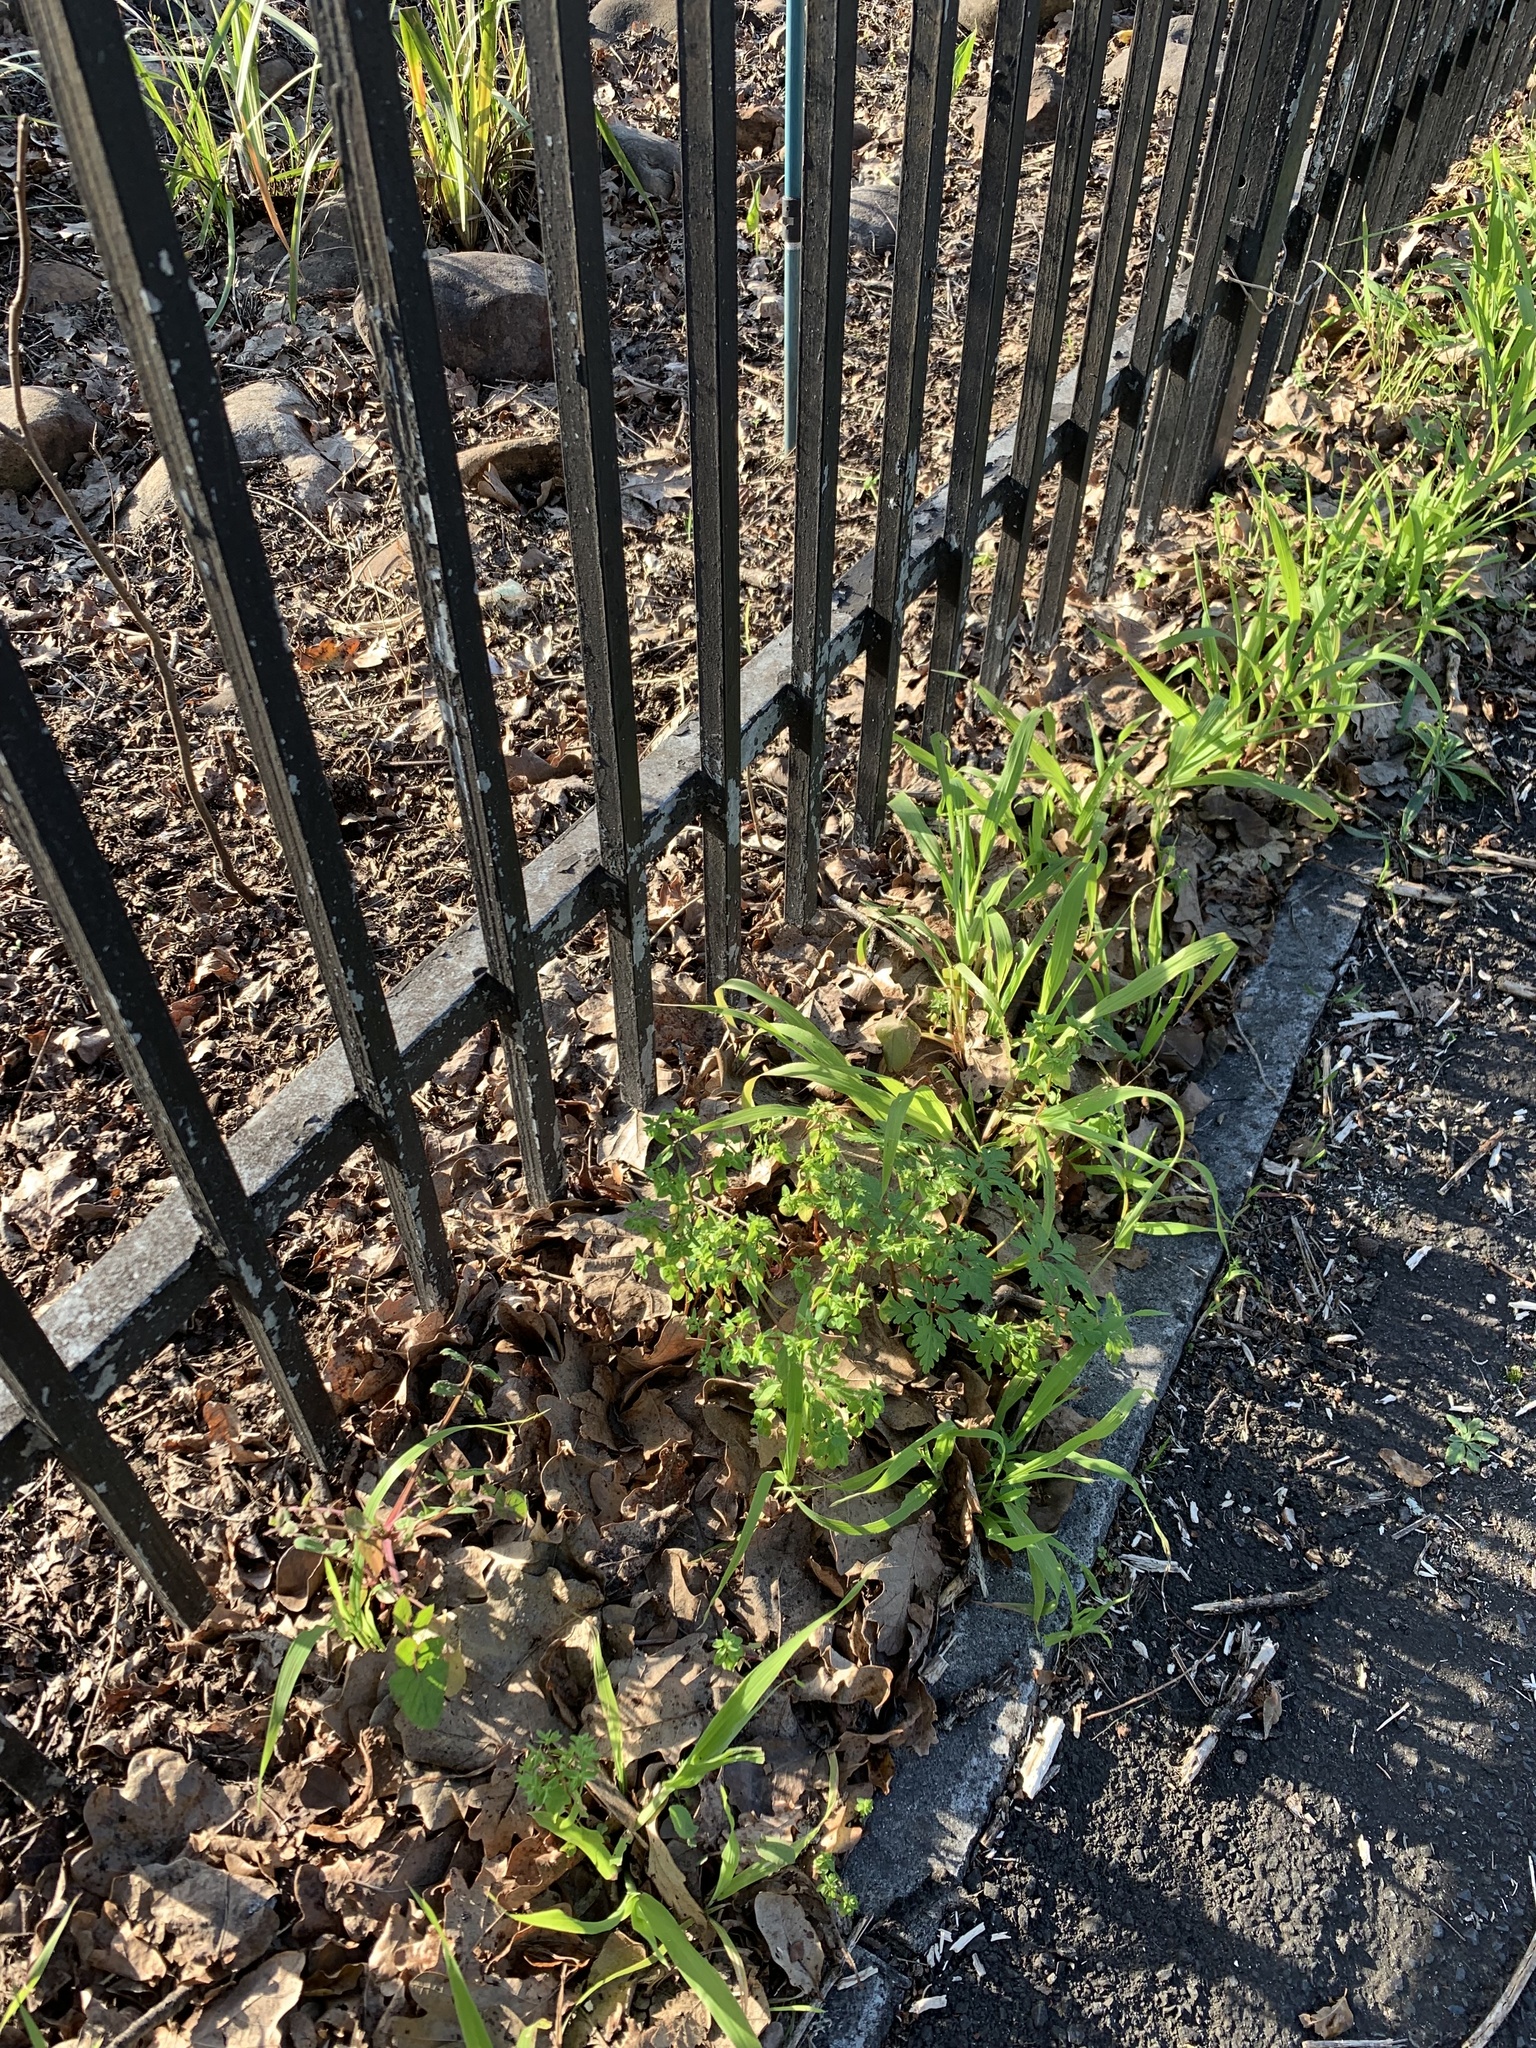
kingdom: Plantae
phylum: Tracheophyta
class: Magnoliopsida
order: Malpighiales
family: Euphorbiaceae
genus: Euphorbia
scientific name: Euphorbia peplus
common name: Petty spurge
